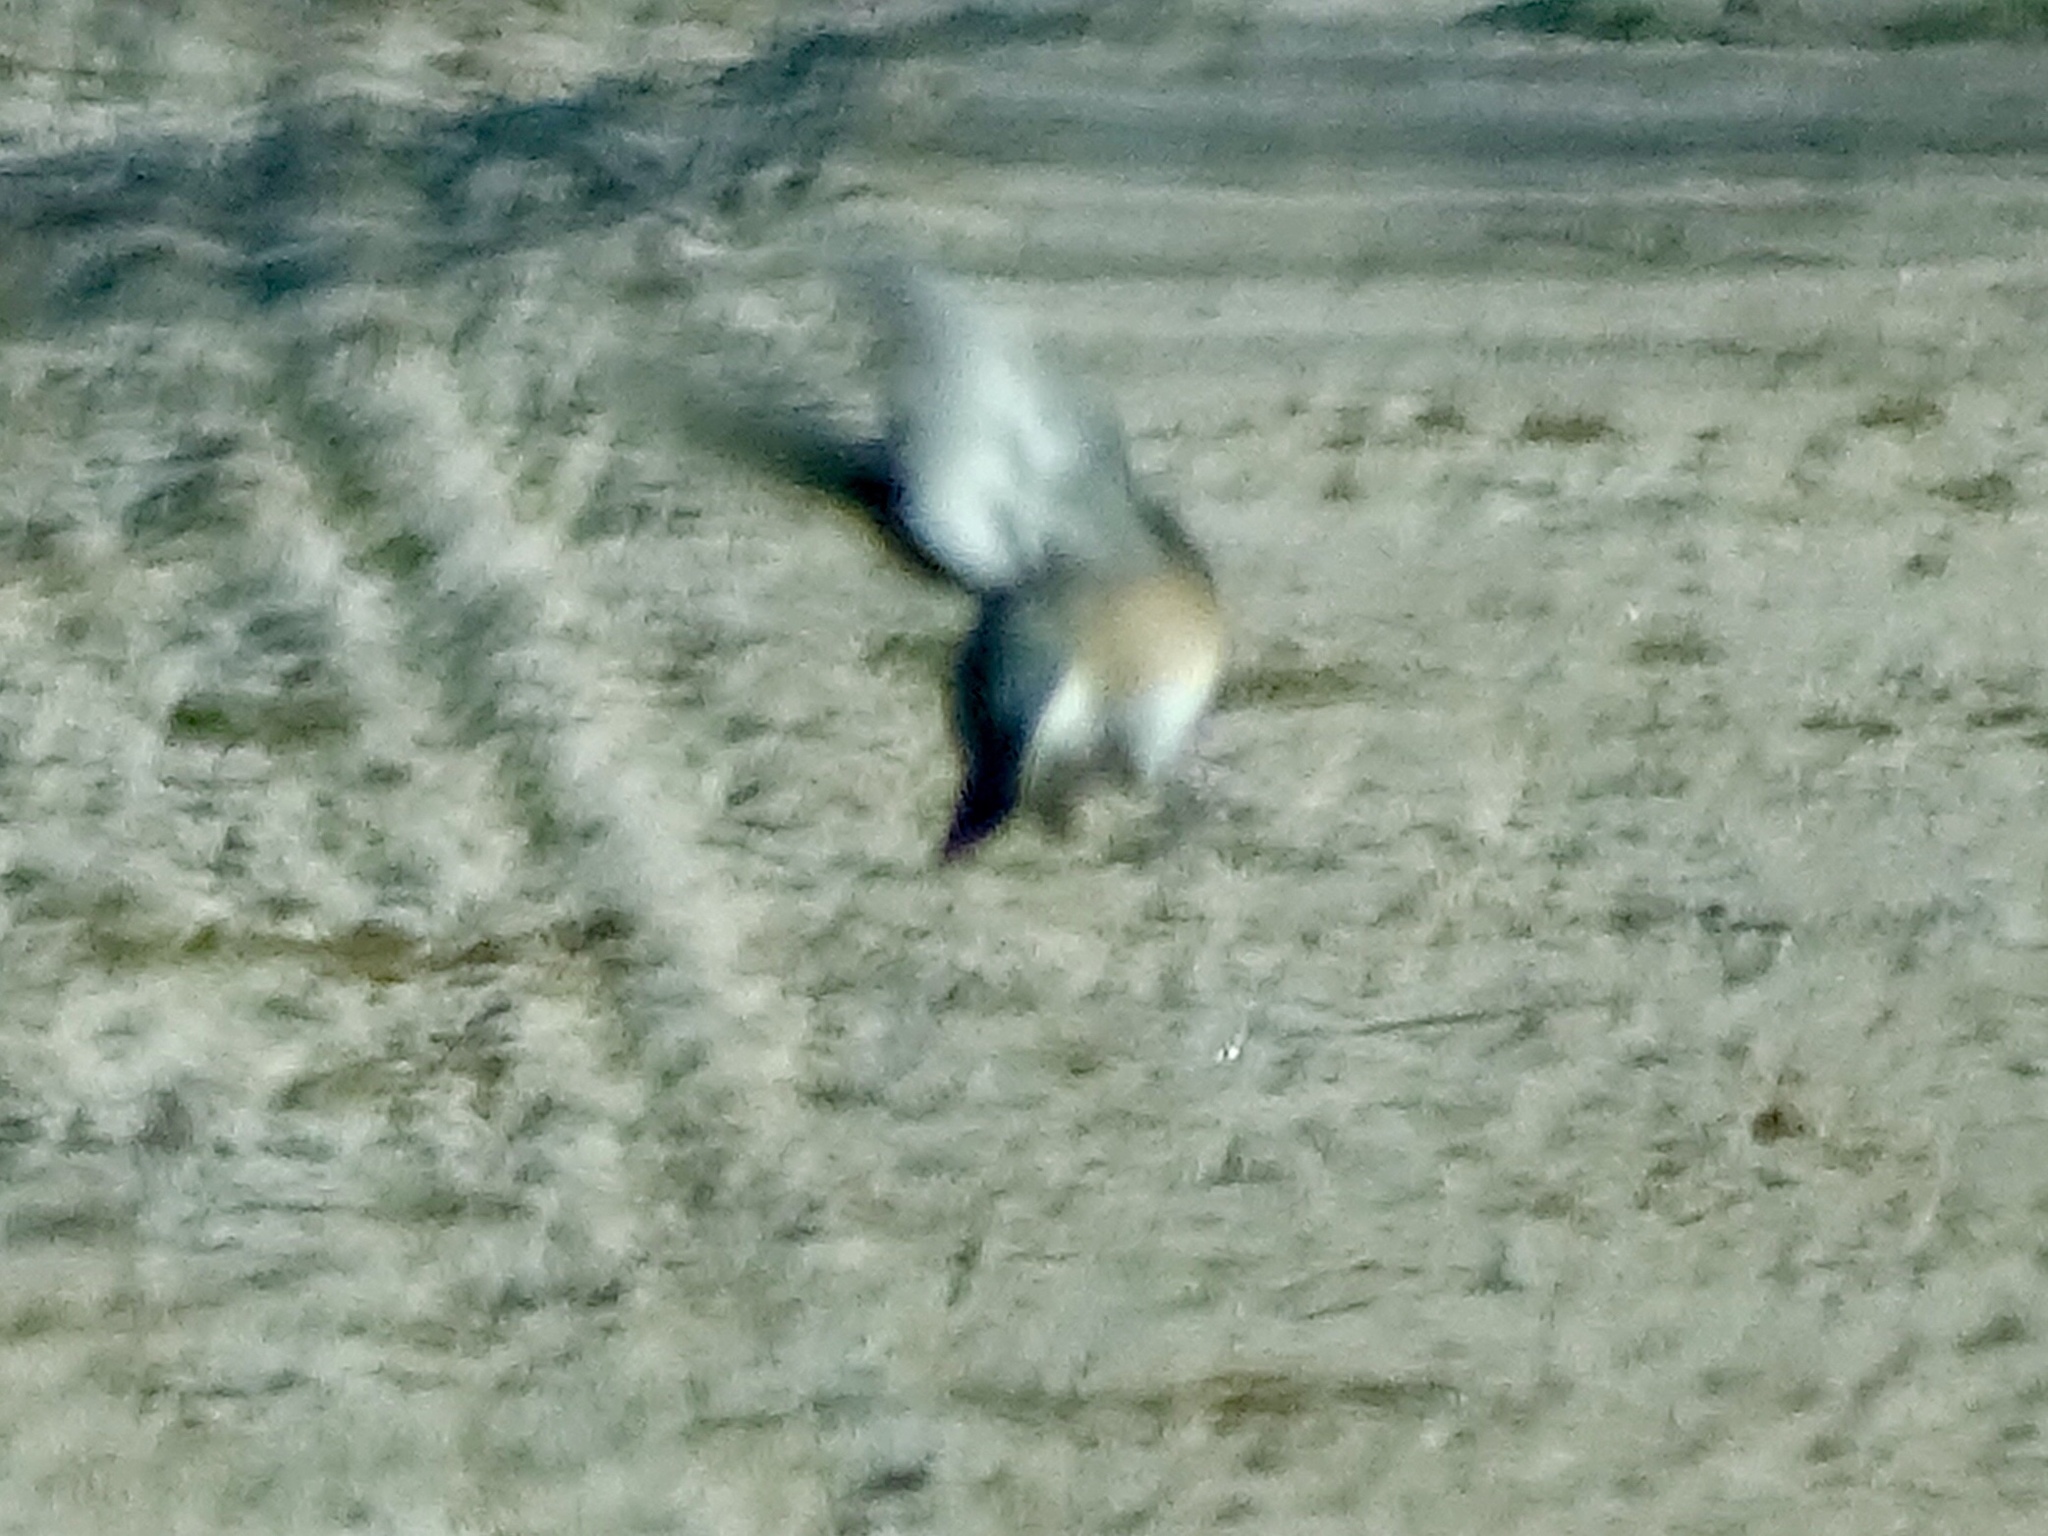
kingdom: Animalia
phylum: Chordata
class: Aves
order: Passeriformes
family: Passerellidae
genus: Junco
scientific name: Junco hyemalis
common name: Dark-eyed junco
